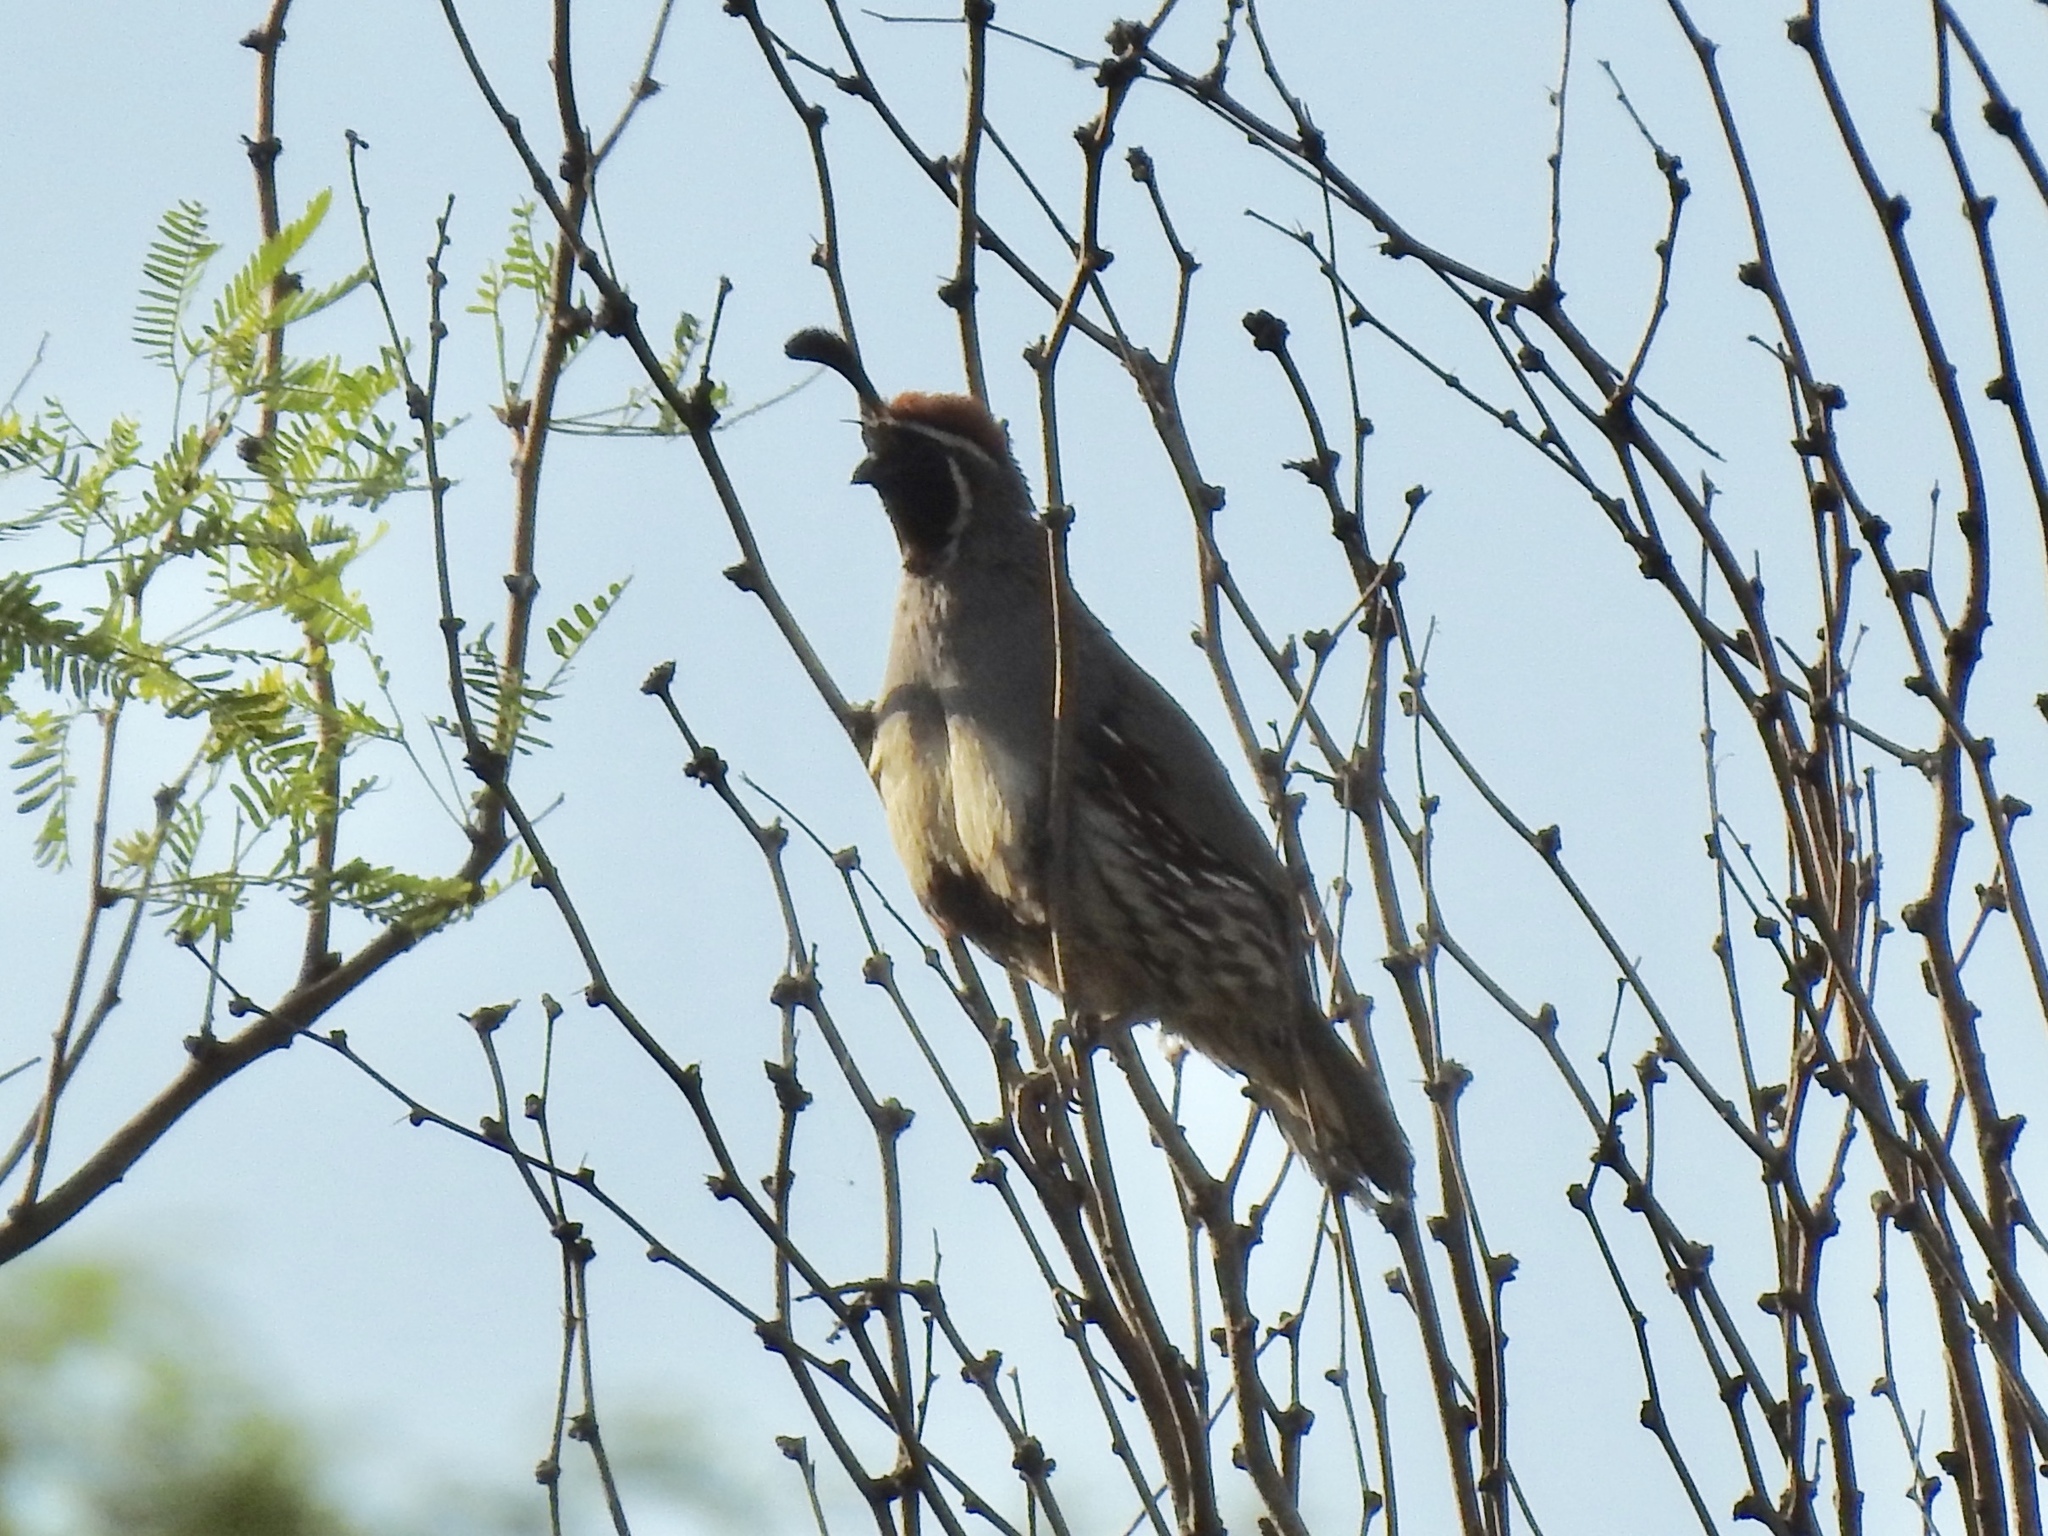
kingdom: Animalia
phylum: Chordata
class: Aves
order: Galliformes
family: Odontophoridae
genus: Callipepla
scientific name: Callipepla gambelii
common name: Gambel's quail
